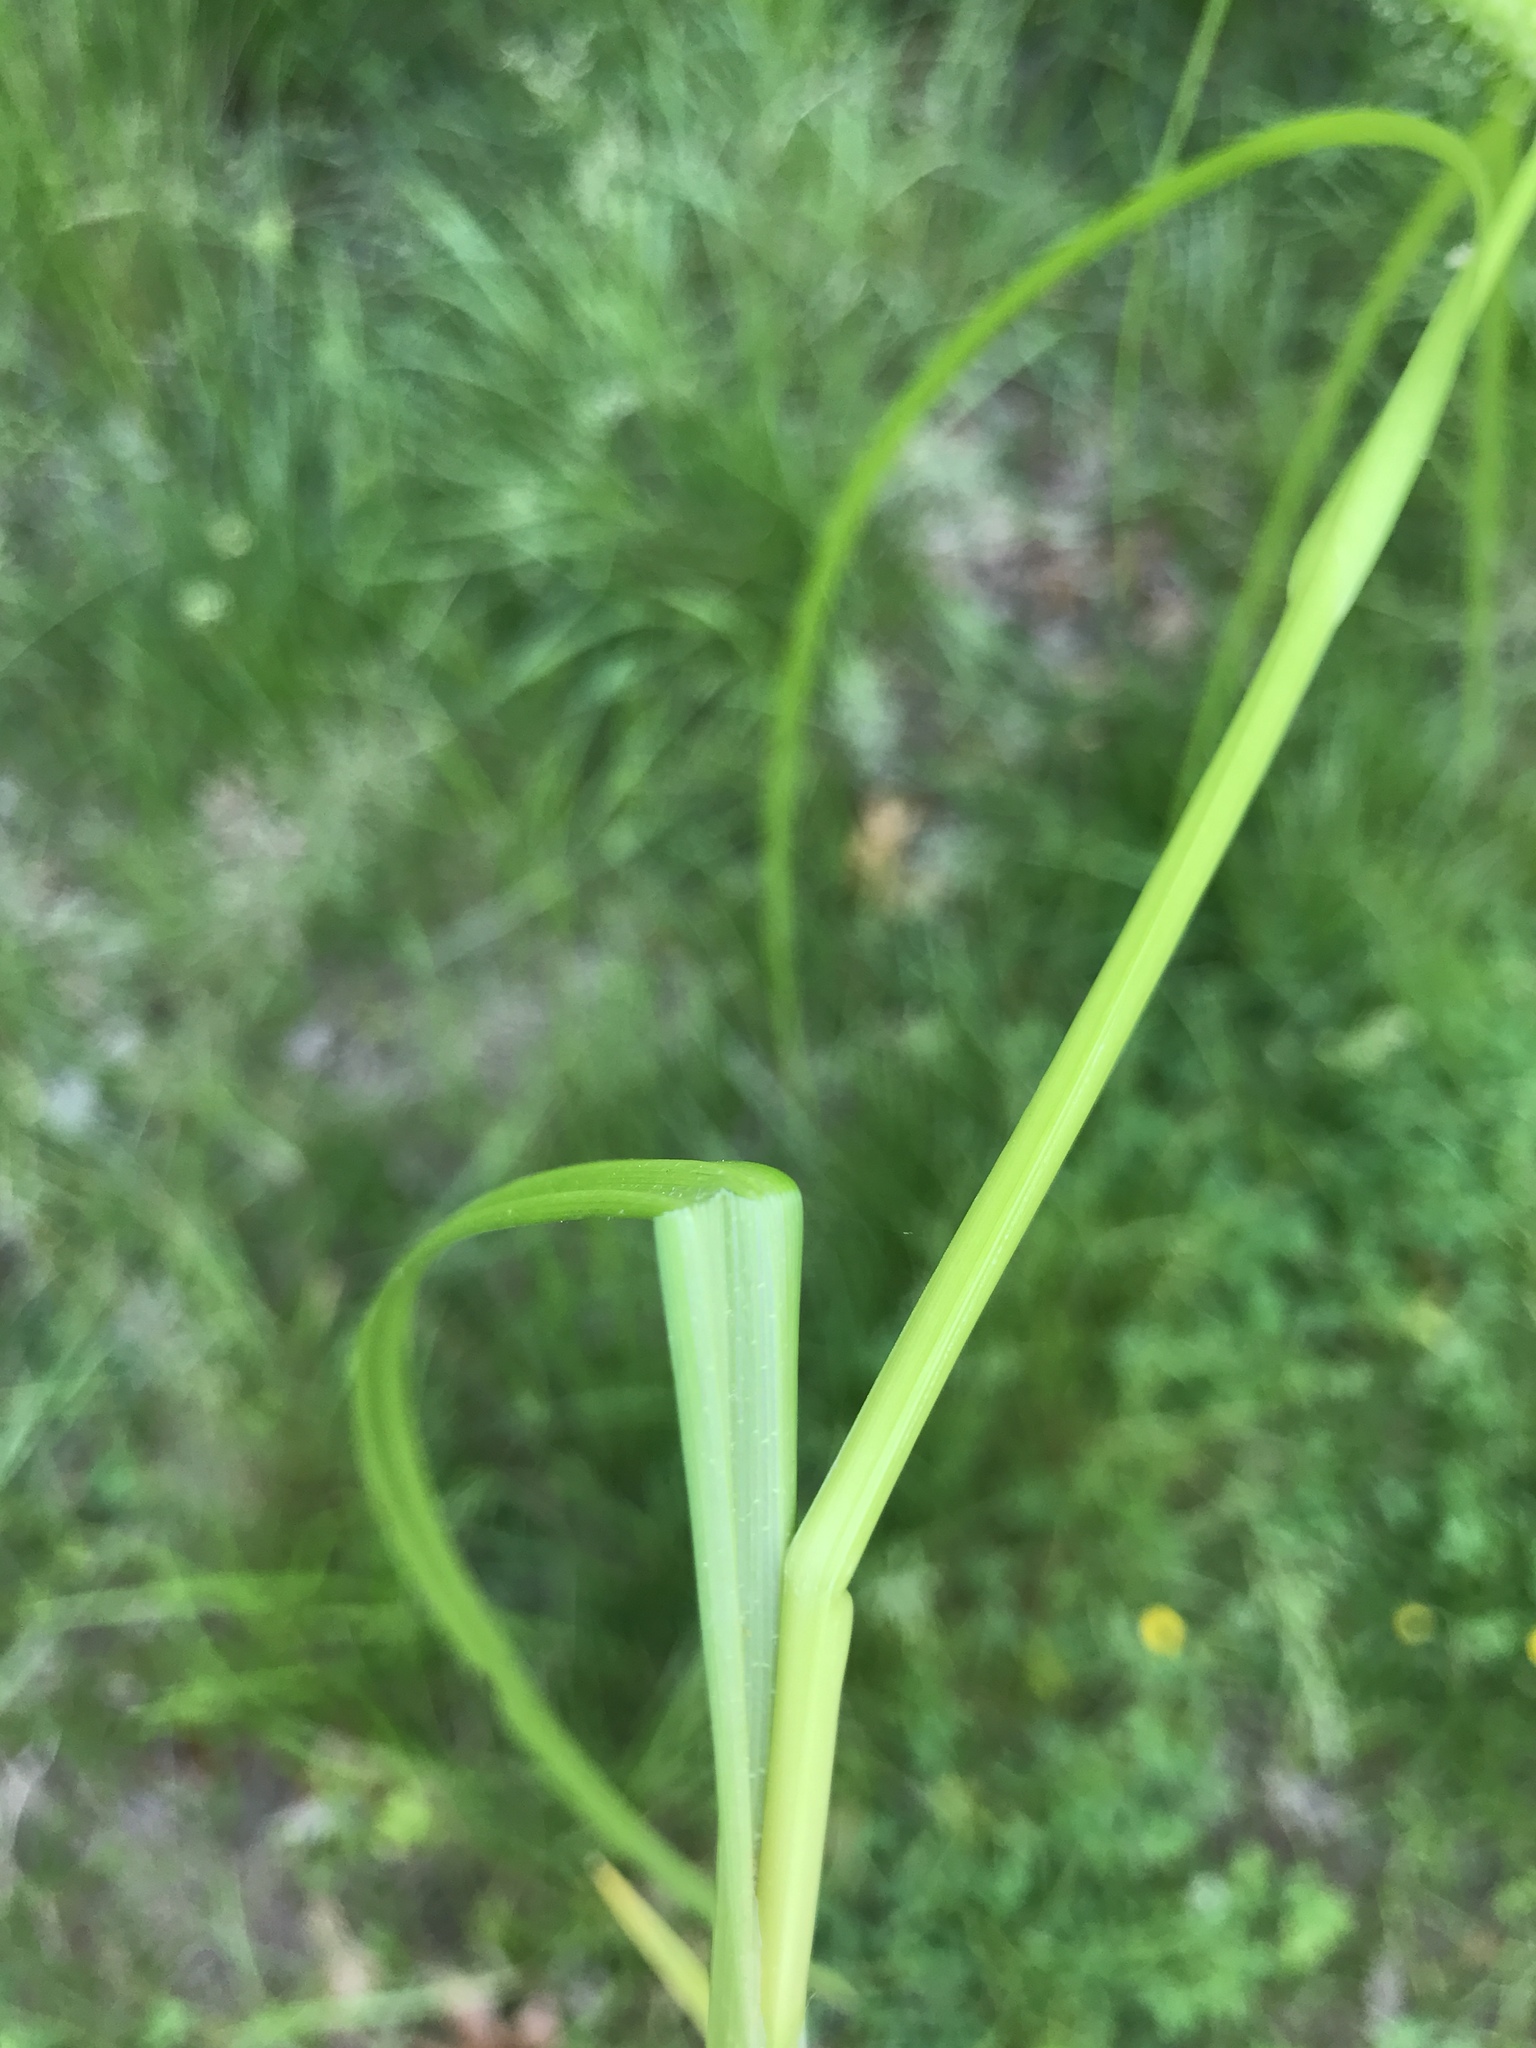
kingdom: Plantae
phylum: Tracheophyta
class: Liliopsida
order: Poales
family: Cyperaceae
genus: Carex
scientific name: Carex lupulina
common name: Hop sedge
